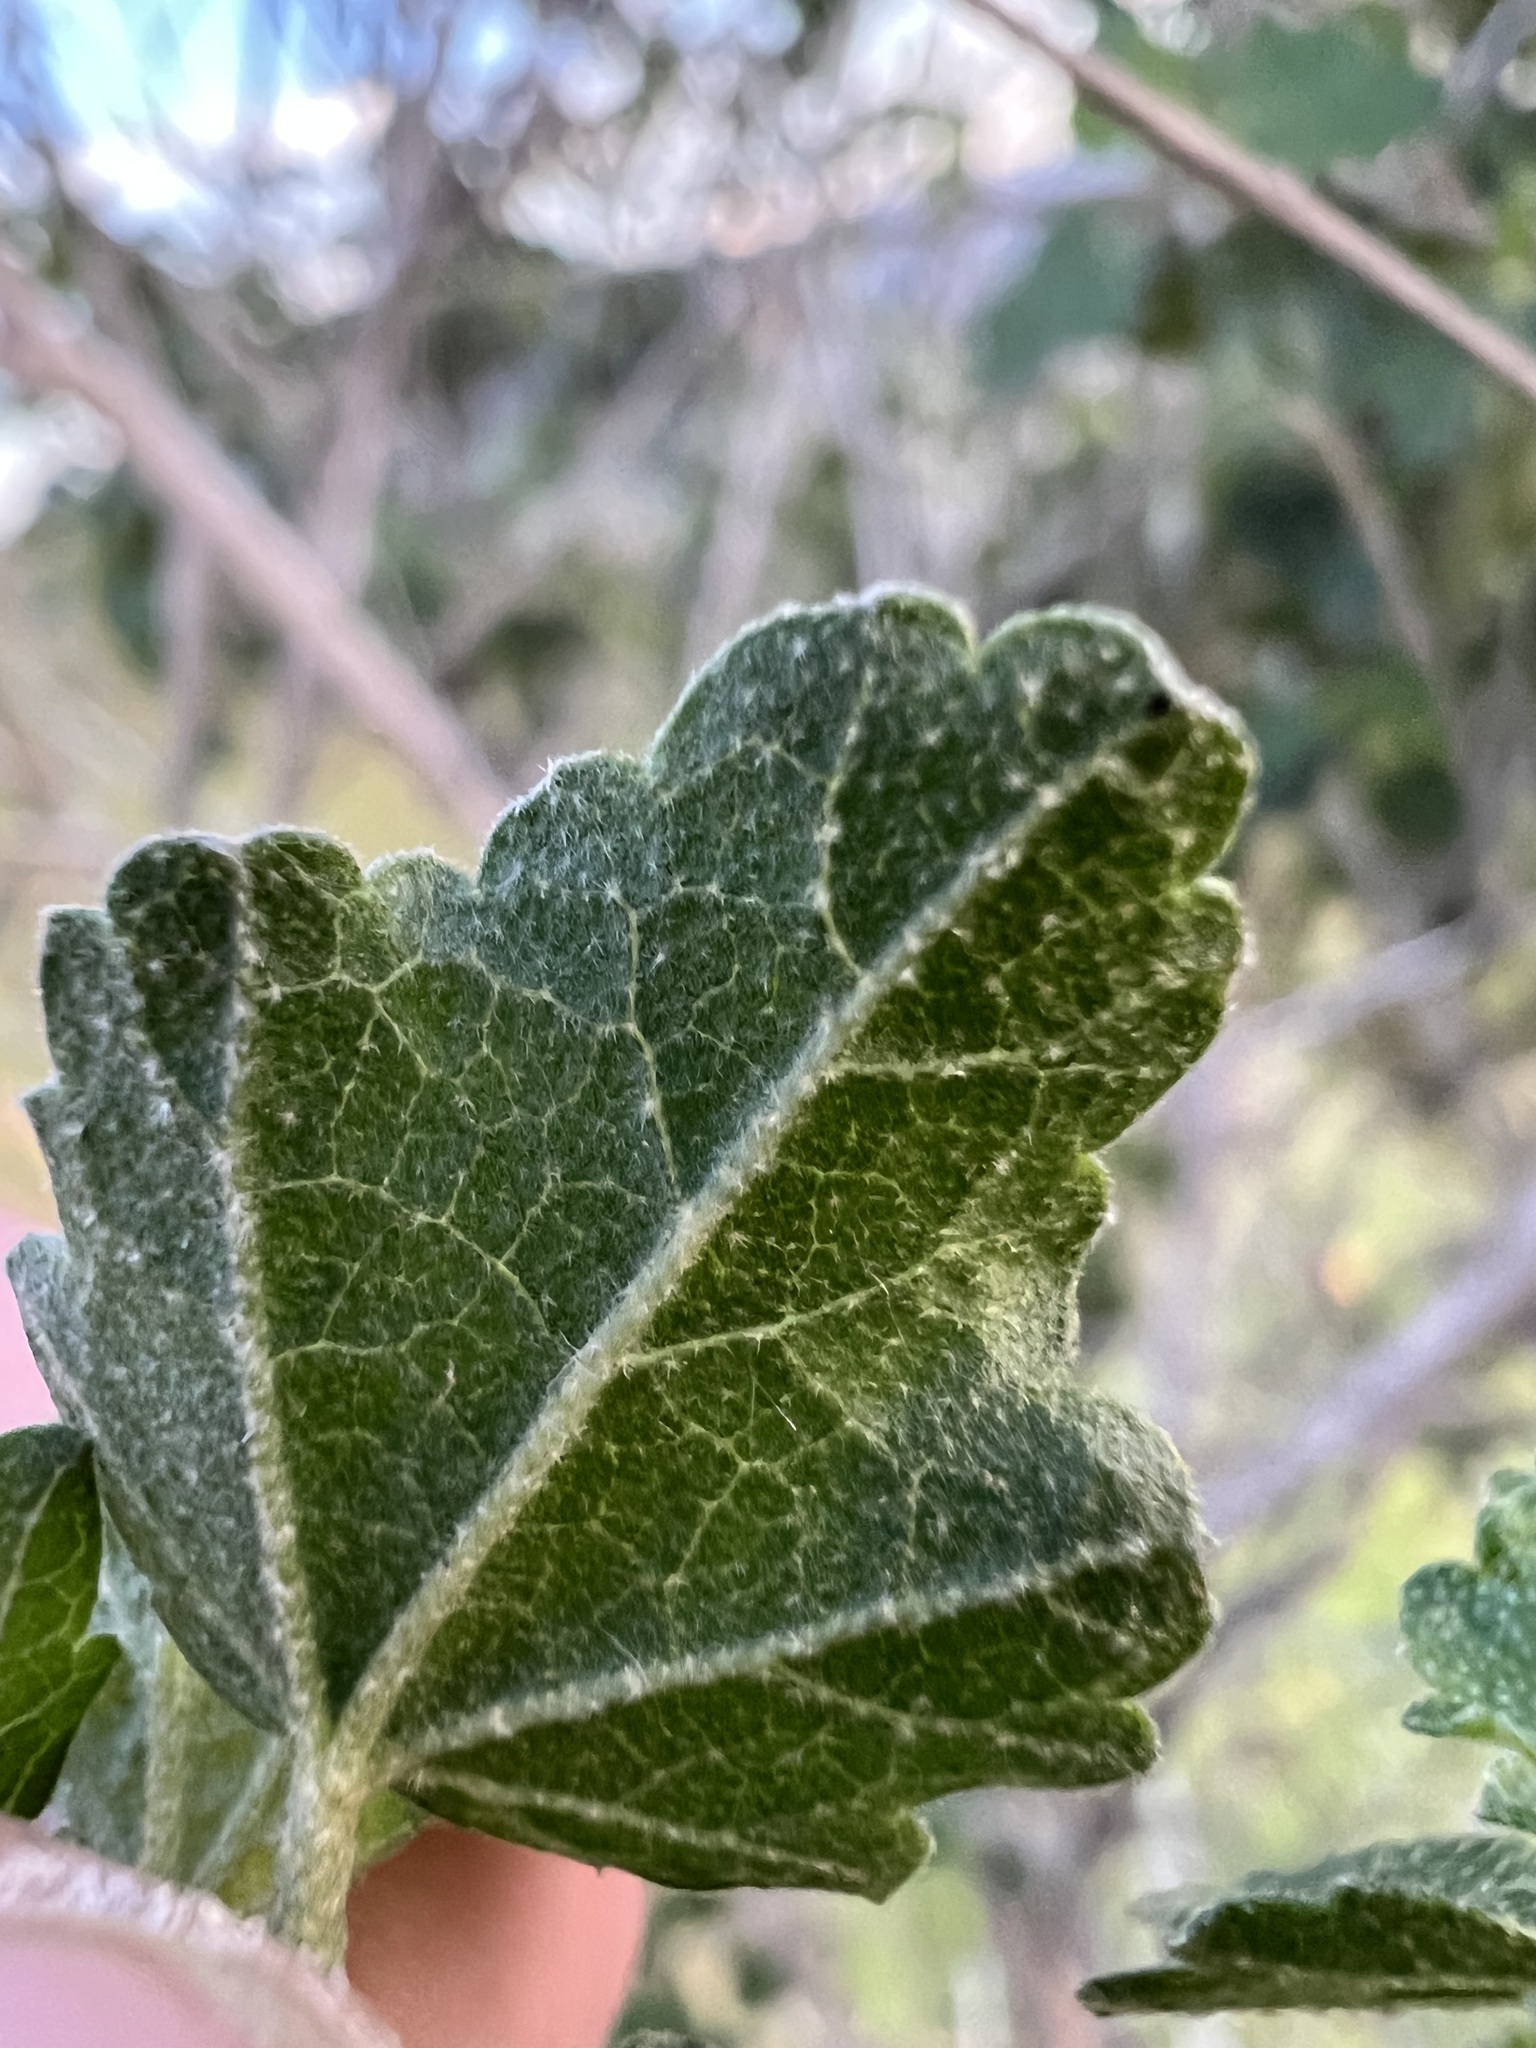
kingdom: Plantae
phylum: Tracheophyta
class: Magnoliopsida
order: Malvales
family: Malvaceae
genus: Malacothamnus
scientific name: Malacothamnus fasciculatus
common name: Sant cruz island bush-mallow
